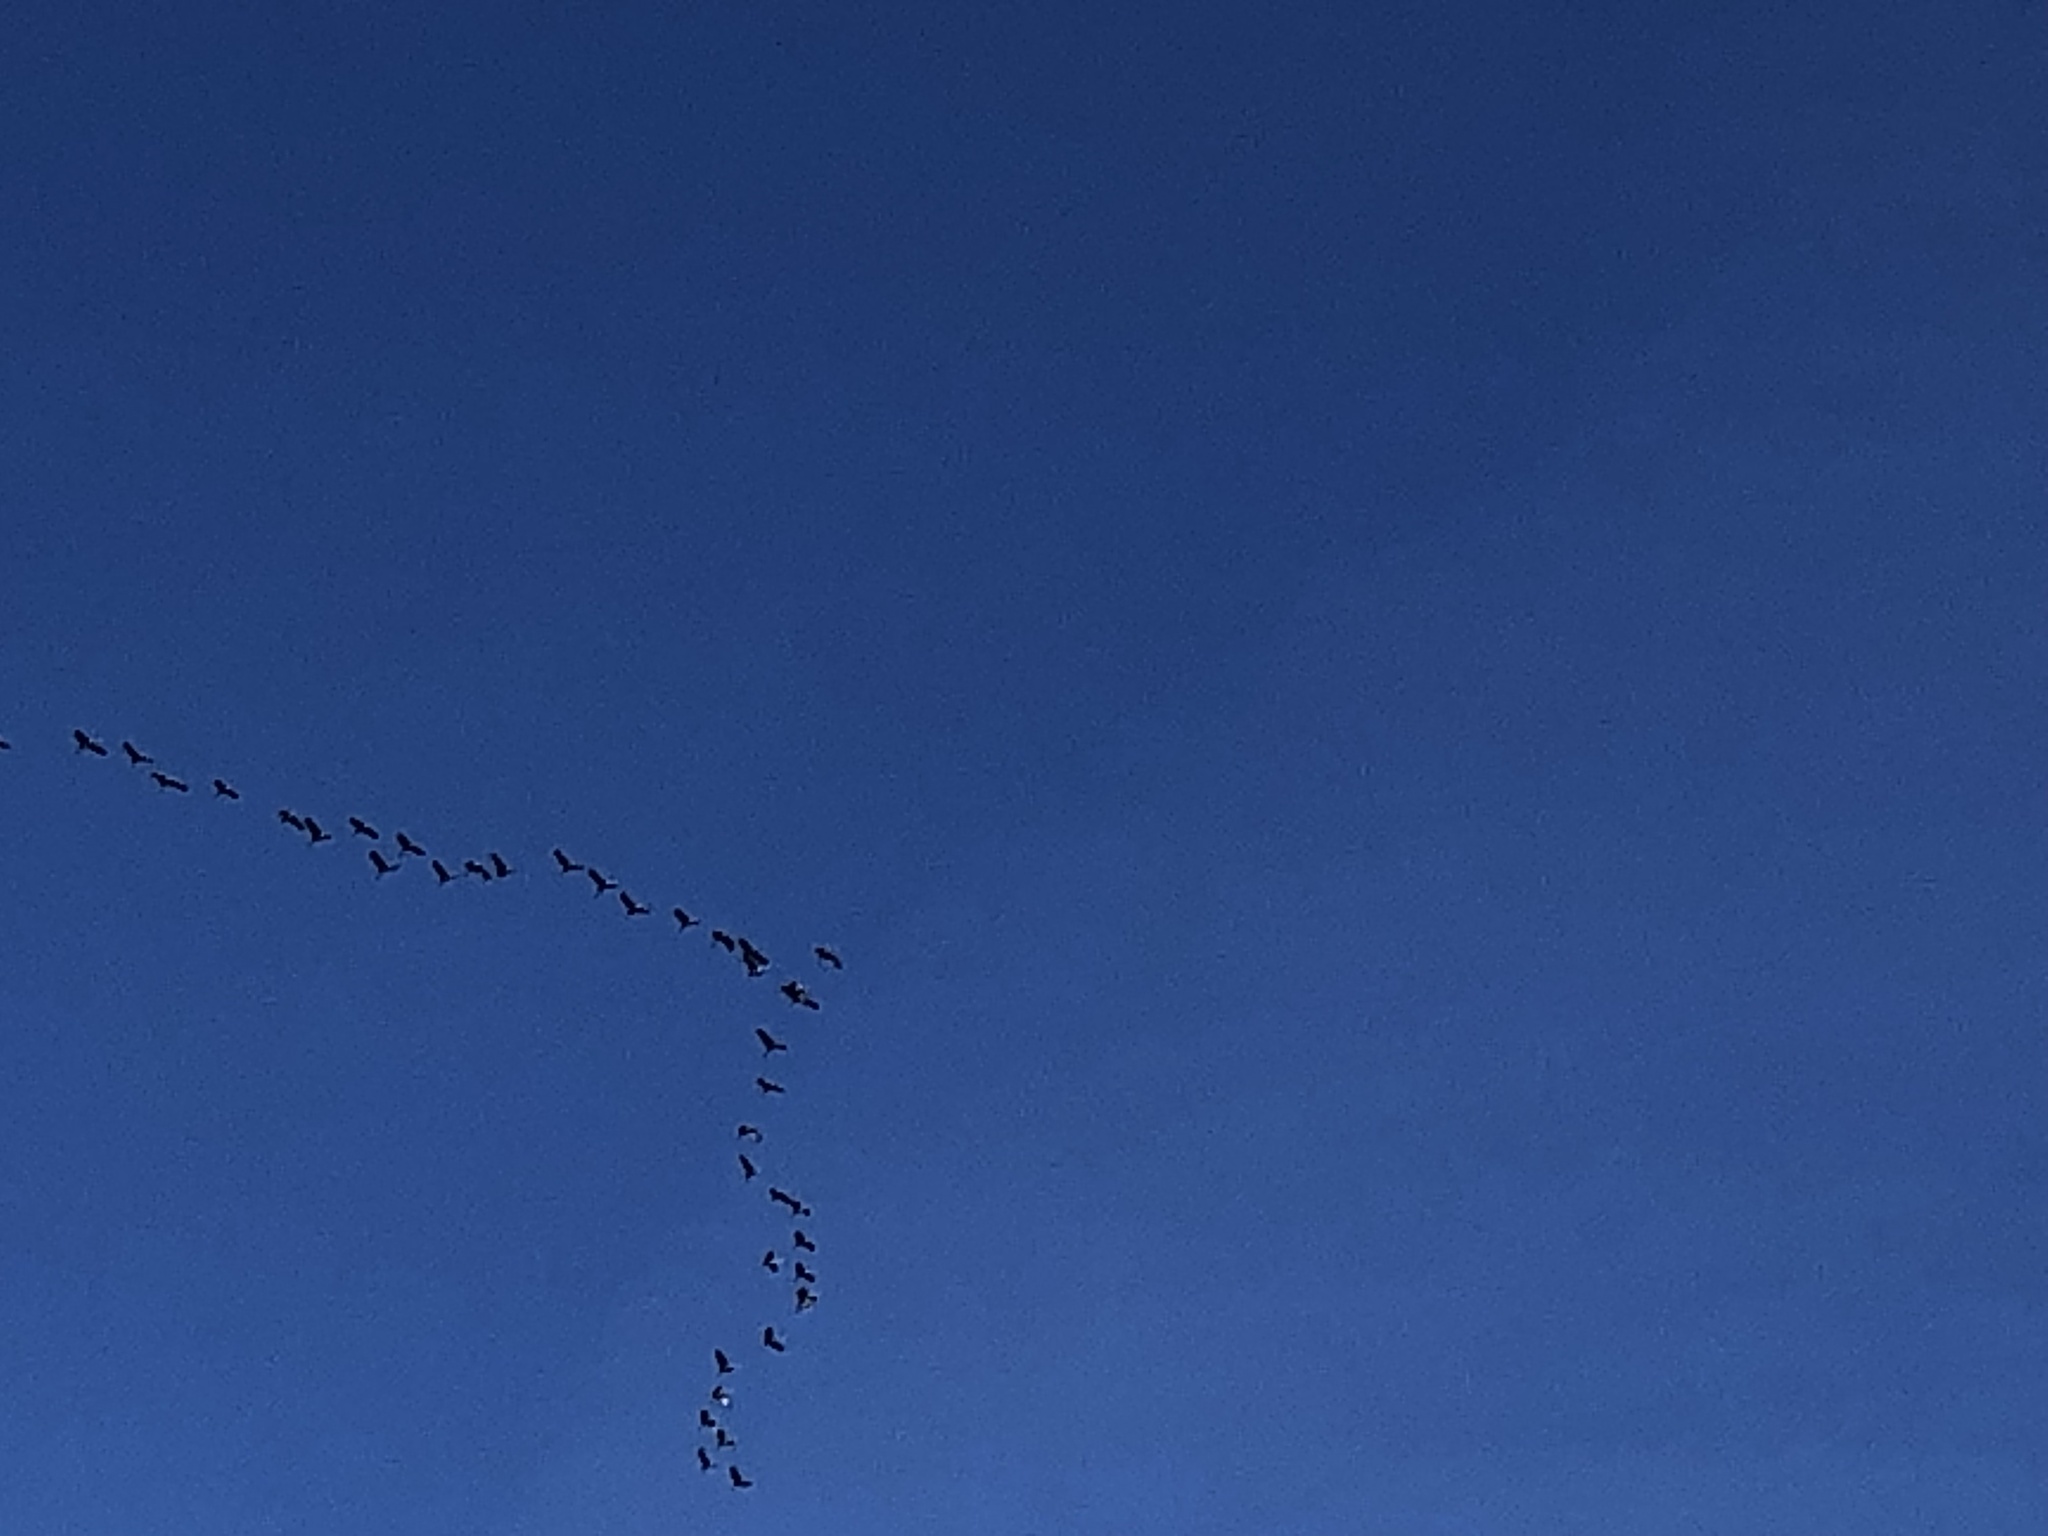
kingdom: Animalia
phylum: Chordata
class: Aves
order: Gruiformes
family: Gruidae
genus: Grus
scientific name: Grus canadensis
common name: Sandhill crane
